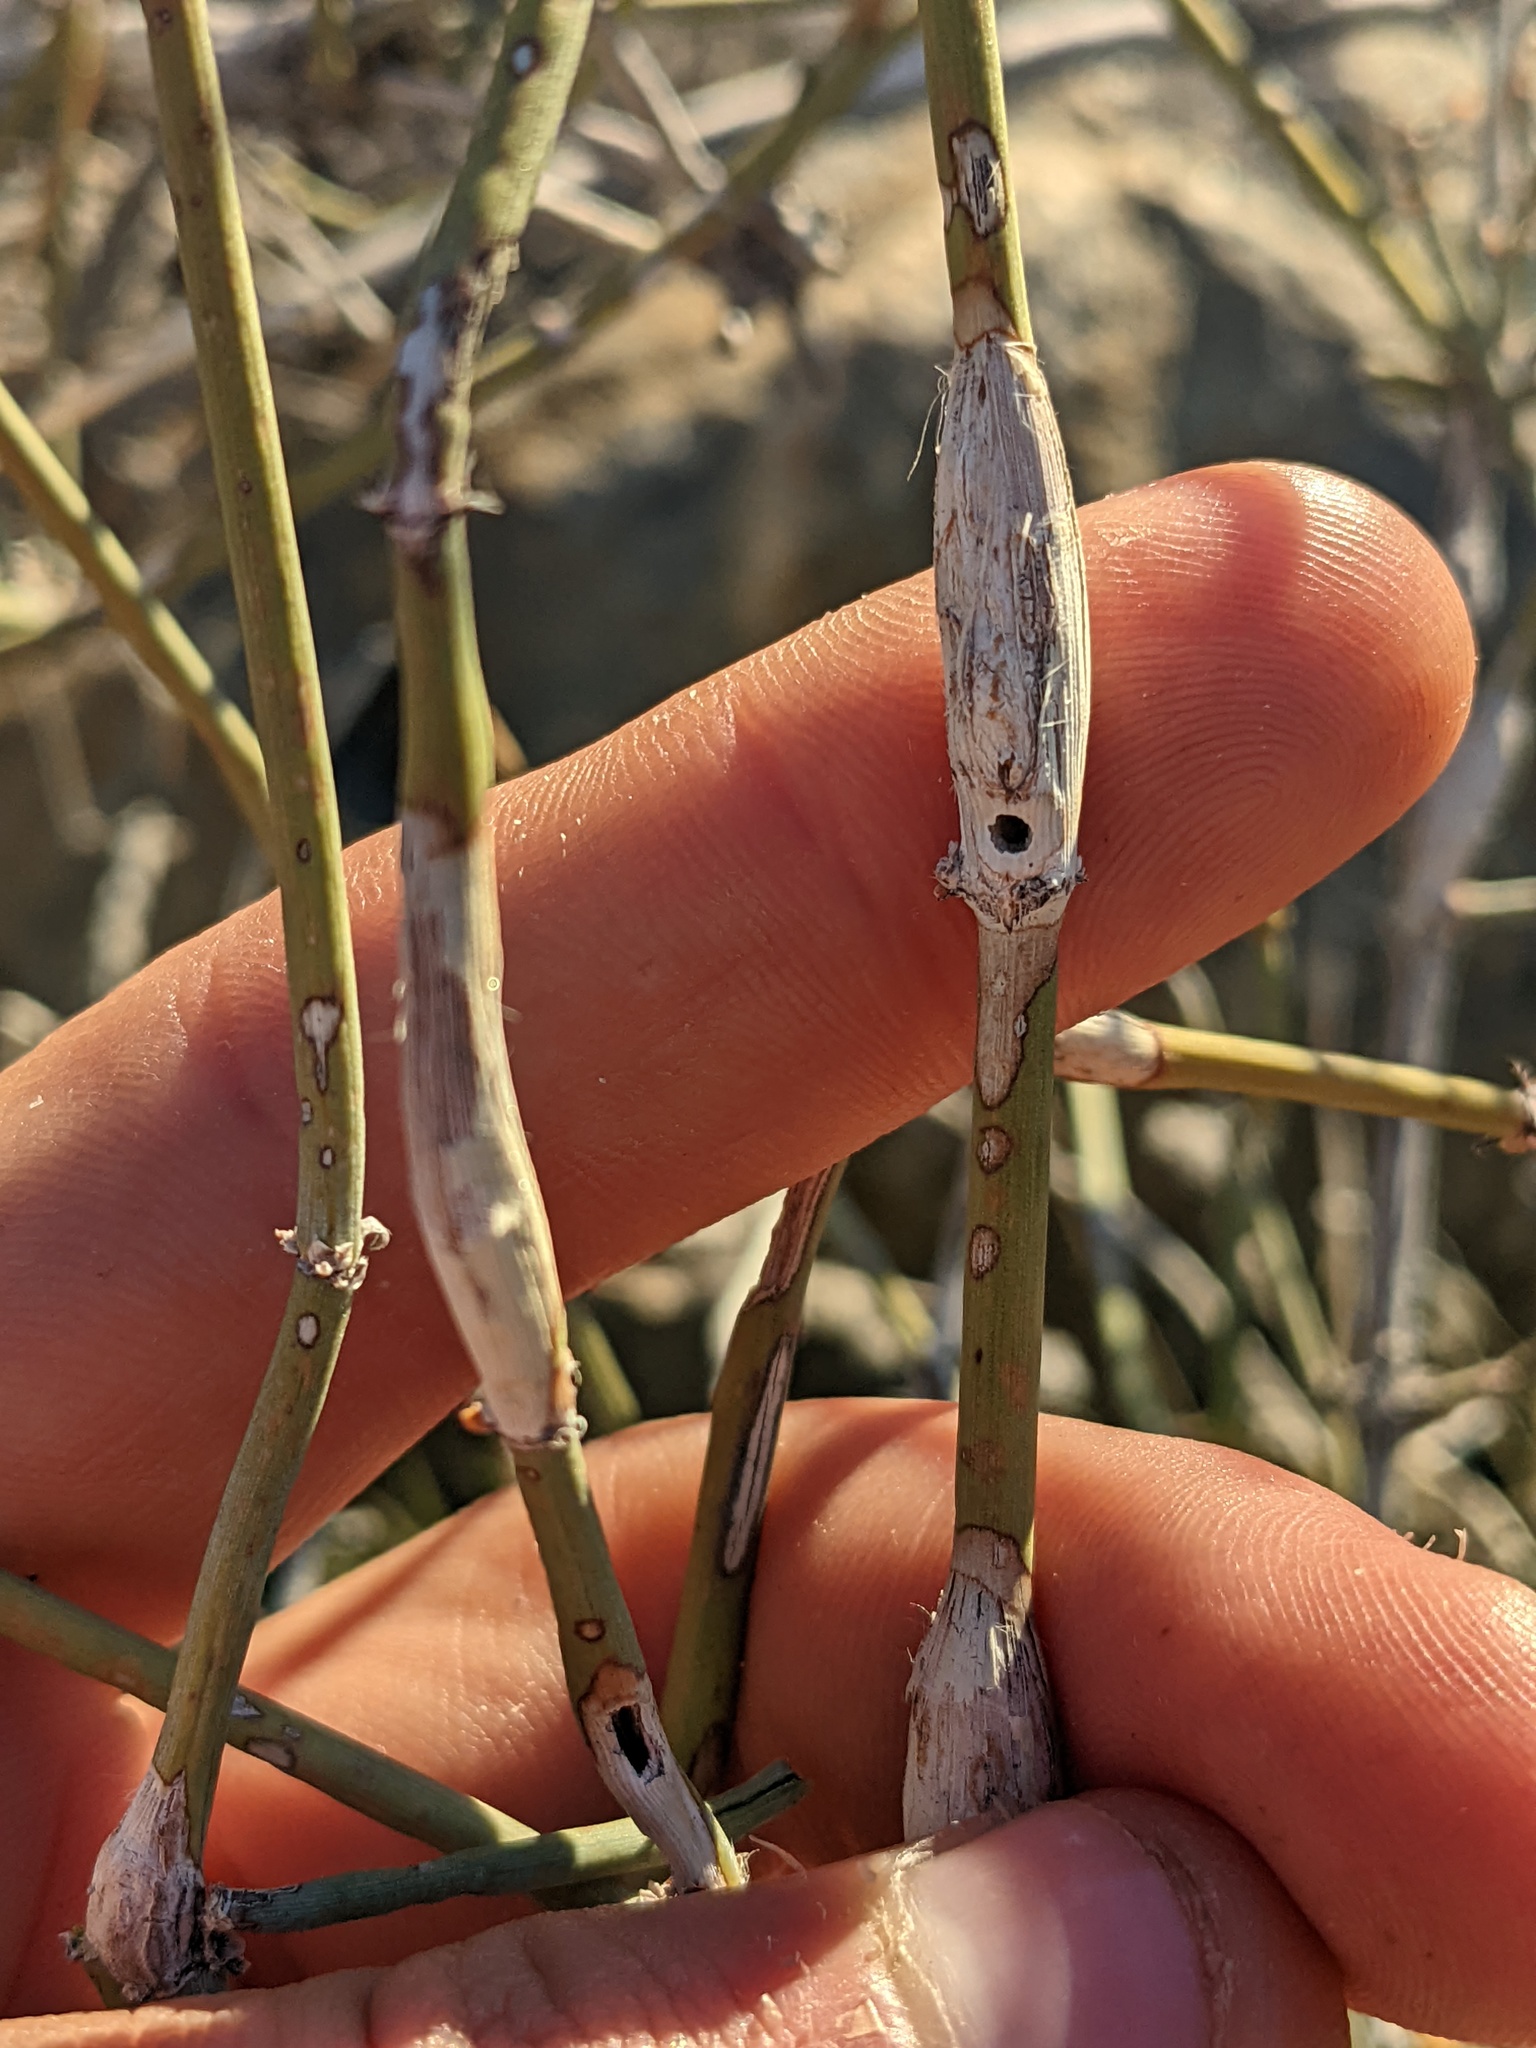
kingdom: Animalia
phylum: Arthropoda
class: Insecta
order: Diptera
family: Cecidomyiidae
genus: Lasioptera
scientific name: Lasioptera ephedricola
